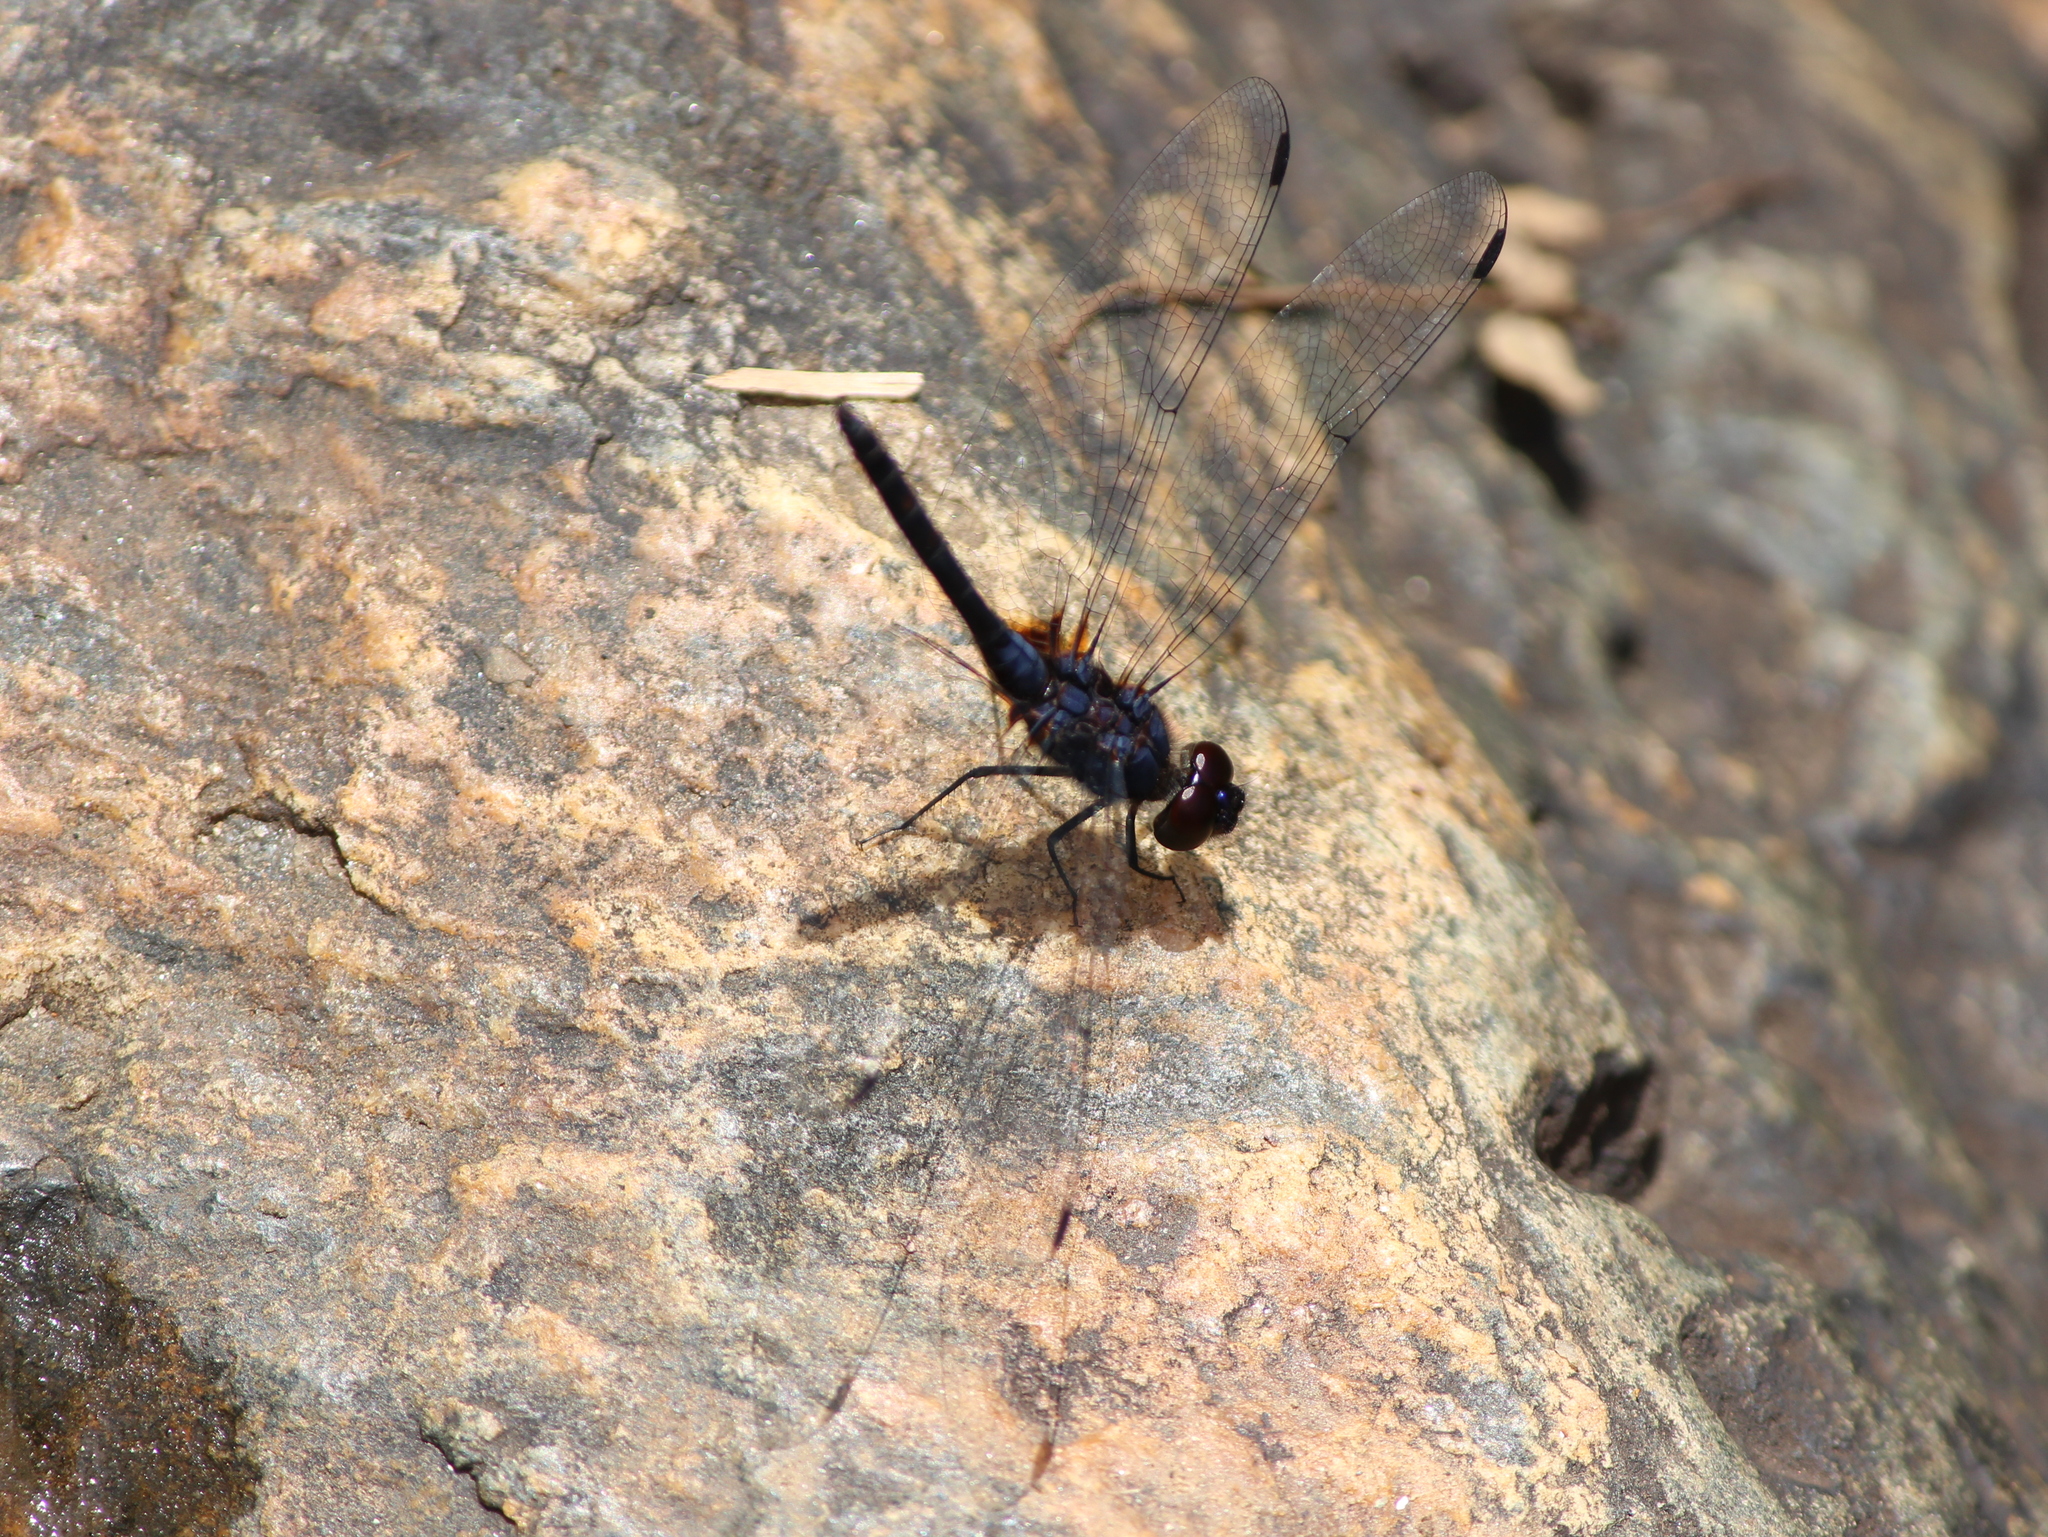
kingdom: Animalia
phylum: Arthropoda
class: Insecta
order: Odonata
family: Libellulidae
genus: Trithemis
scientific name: Trithemis festiva
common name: Indigo dropwing
